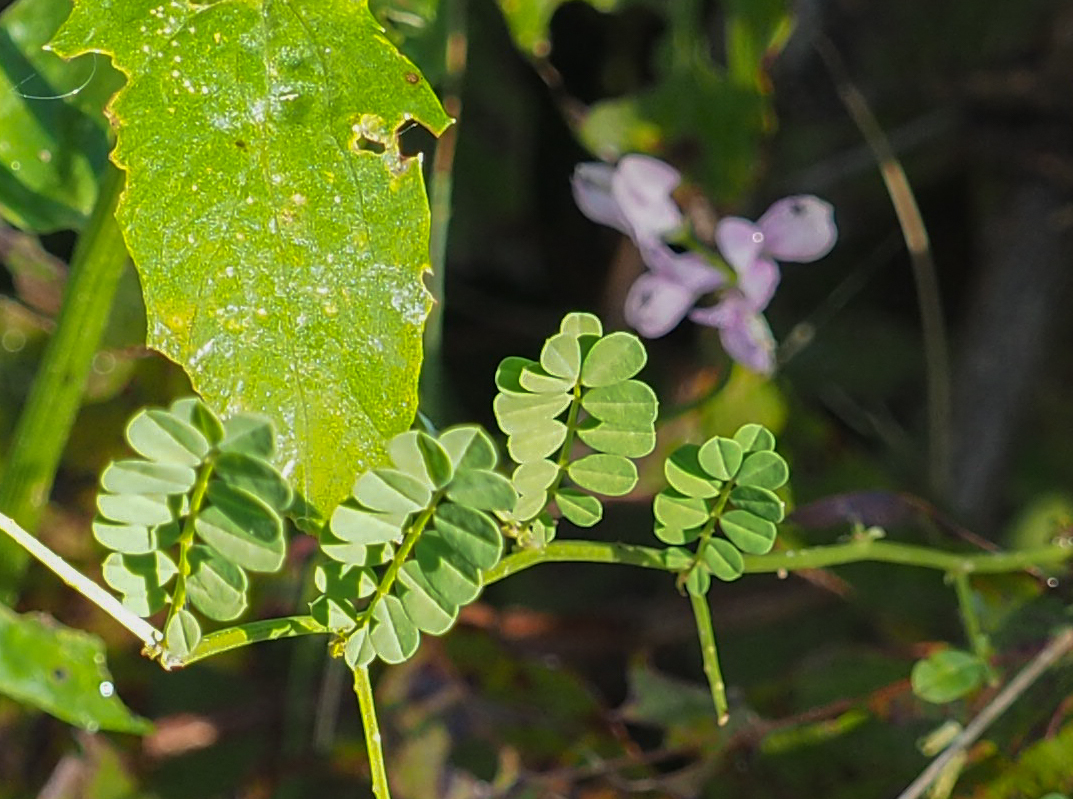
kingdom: Plantae
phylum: Tracheophyta
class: Magnoliopsida
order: Fabales
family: Fabaceae
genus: Coronilla
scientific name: Coronilla varia
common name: Crownvetch
